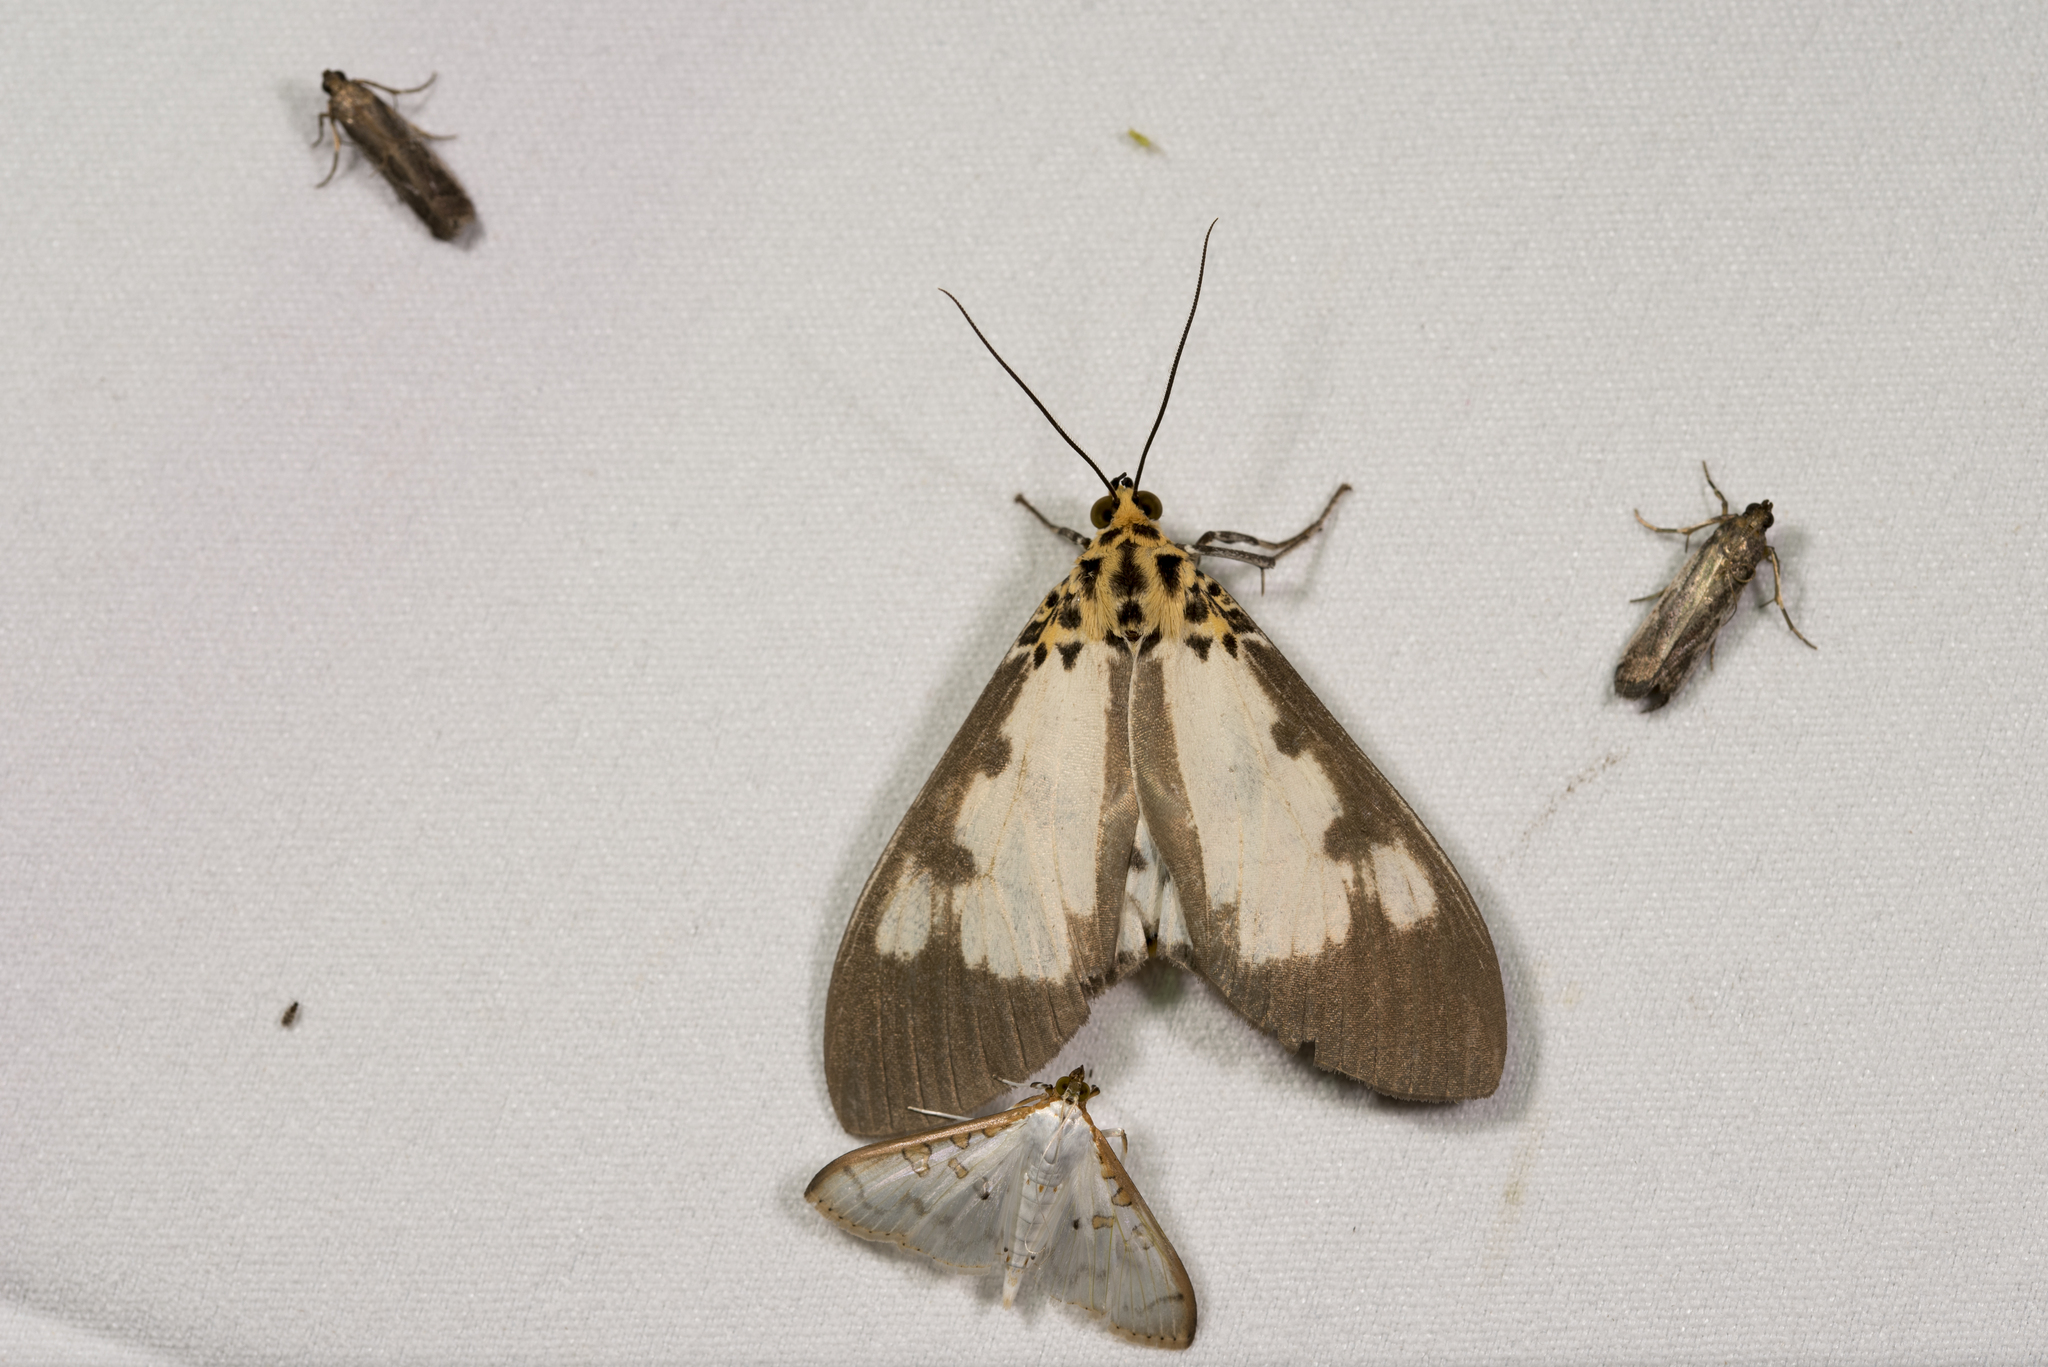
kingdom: Animalia
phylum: Arthropoda
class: Insecta
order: Lepidoptera
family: Erebidae
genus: Asota
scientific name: Asota plana
